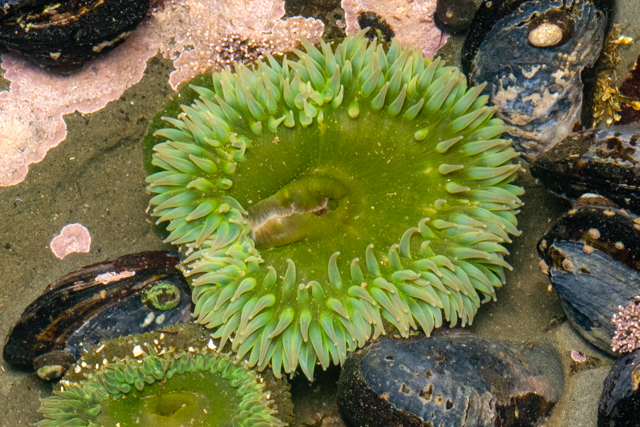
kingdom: Animalia
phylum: Cnidaria
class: Anthozoa
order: Actiniaria
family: Actiniidae
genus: Anthopleura
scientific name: Anthopleura xanthogrammica
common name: Giant green anemone
